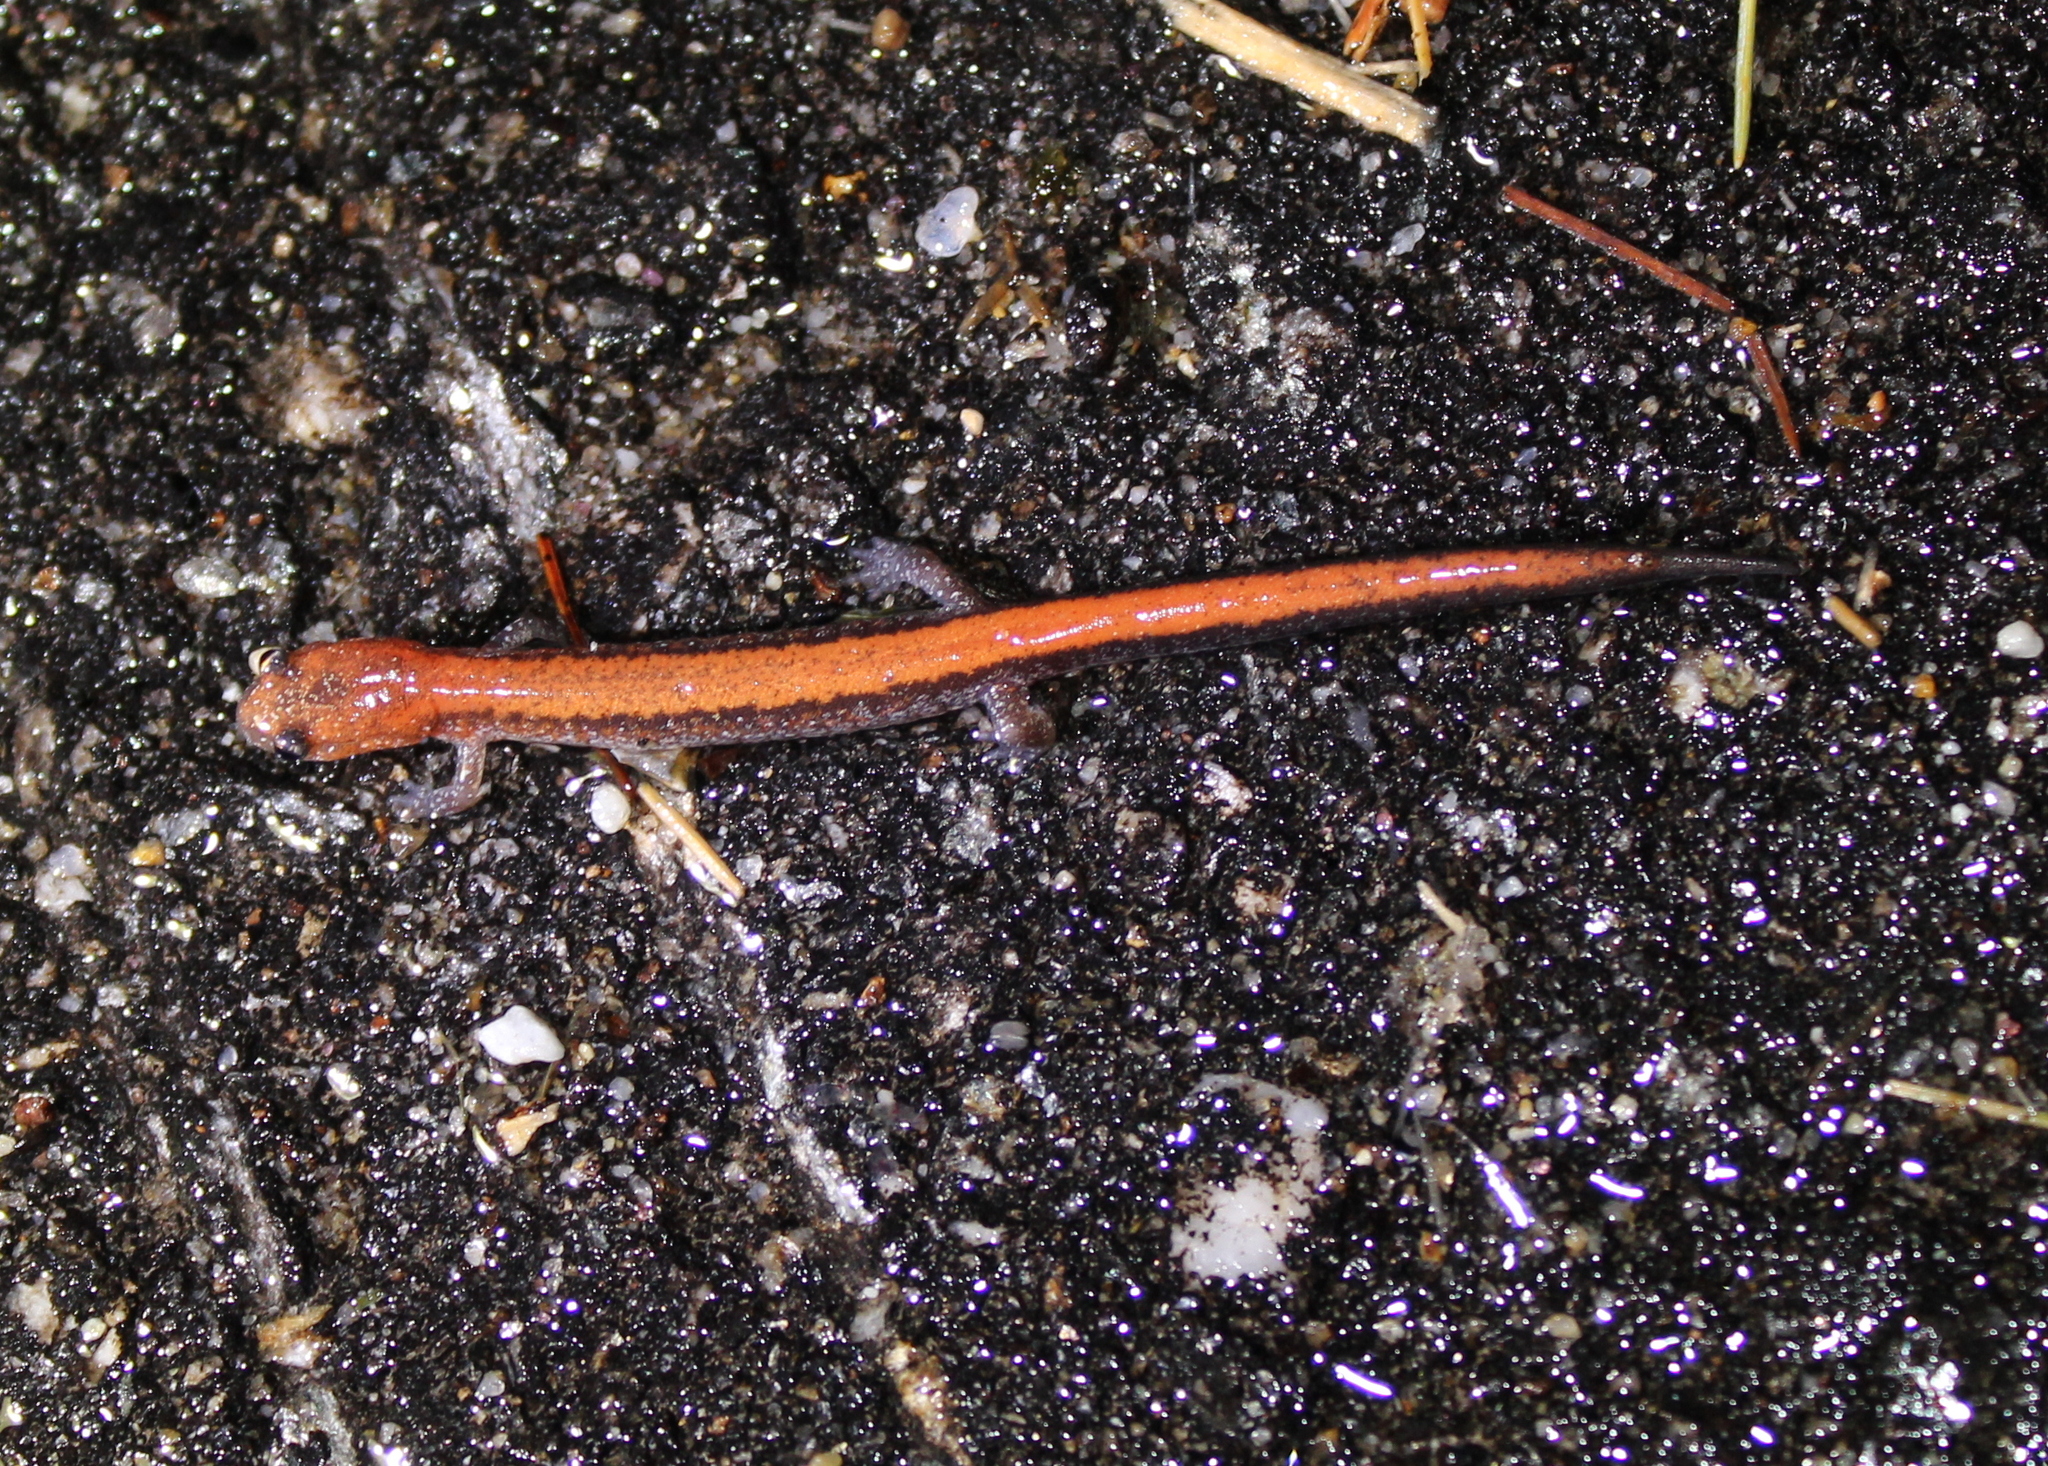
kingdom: Animalia
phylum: Chordata
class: Amphibia
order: Caudata
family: Plethodontidae
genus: Plethodon
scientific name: Plethodon cinereus
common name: Redback salamander
